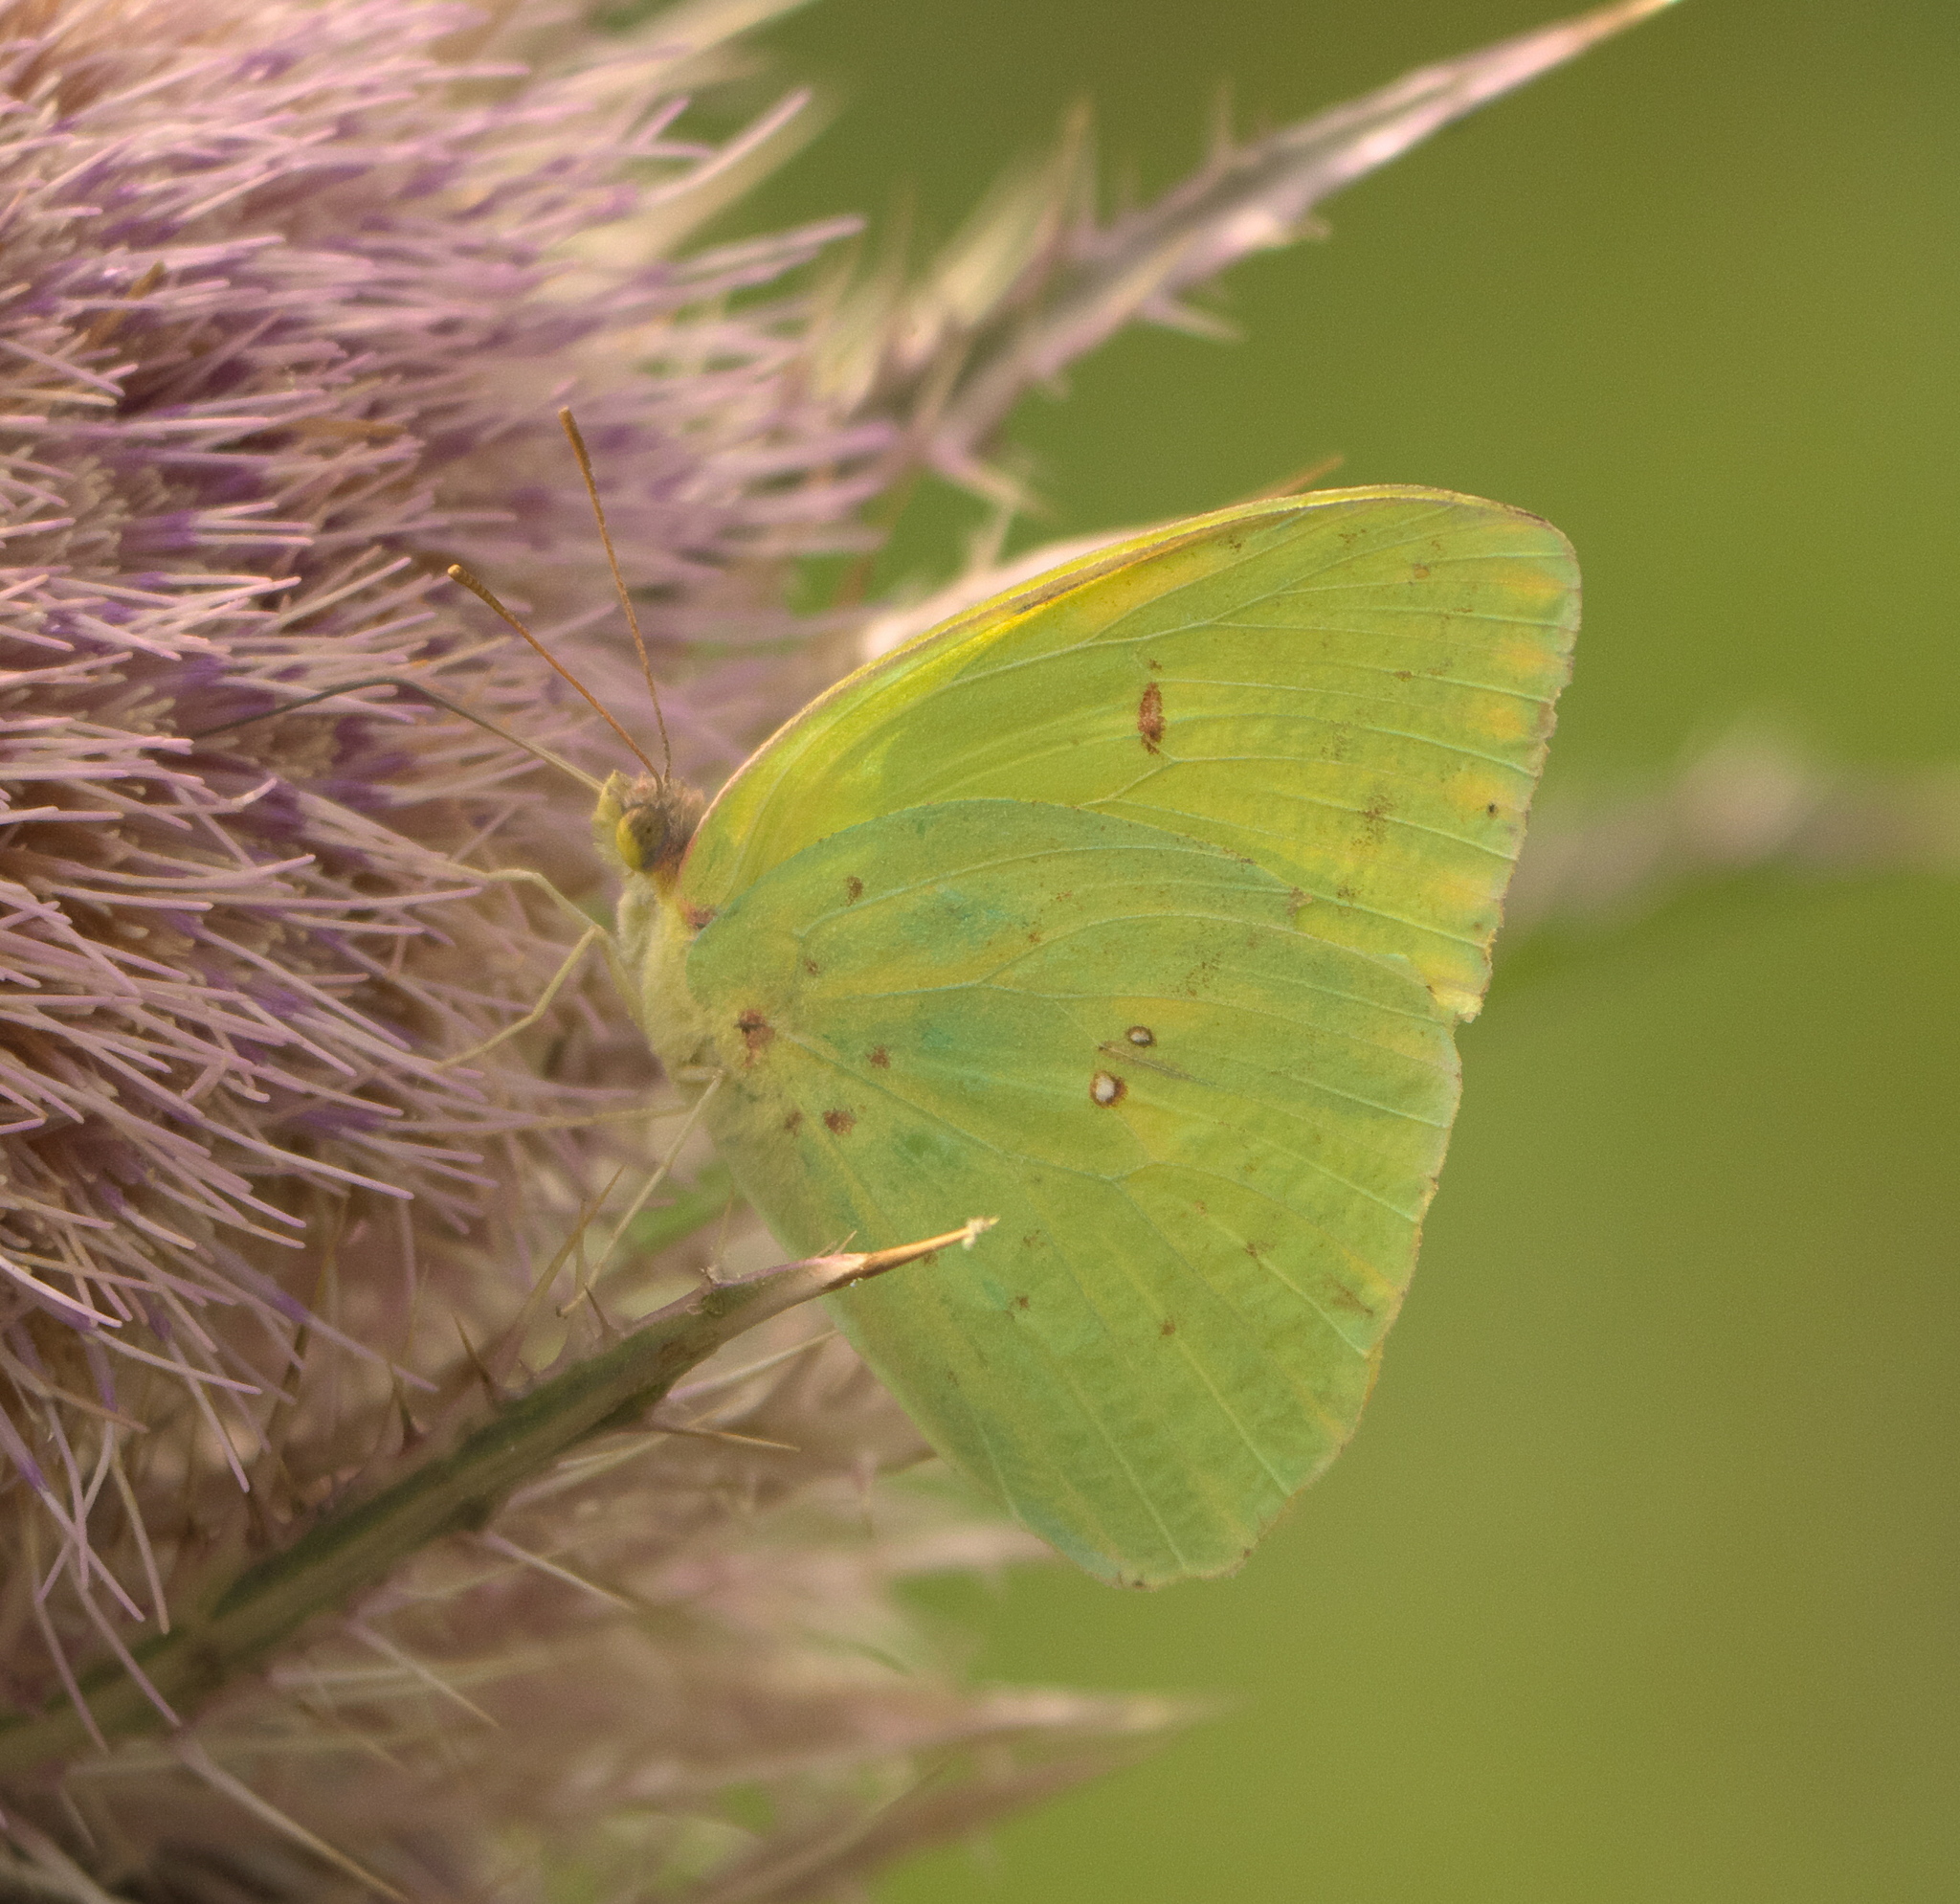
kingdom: Animalia
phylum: Arthropoda
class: Insecta
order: Lepidoptera
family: Pieridae
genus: Phoebis
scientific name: Phoebis sennae
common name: Cloudless sulphur
